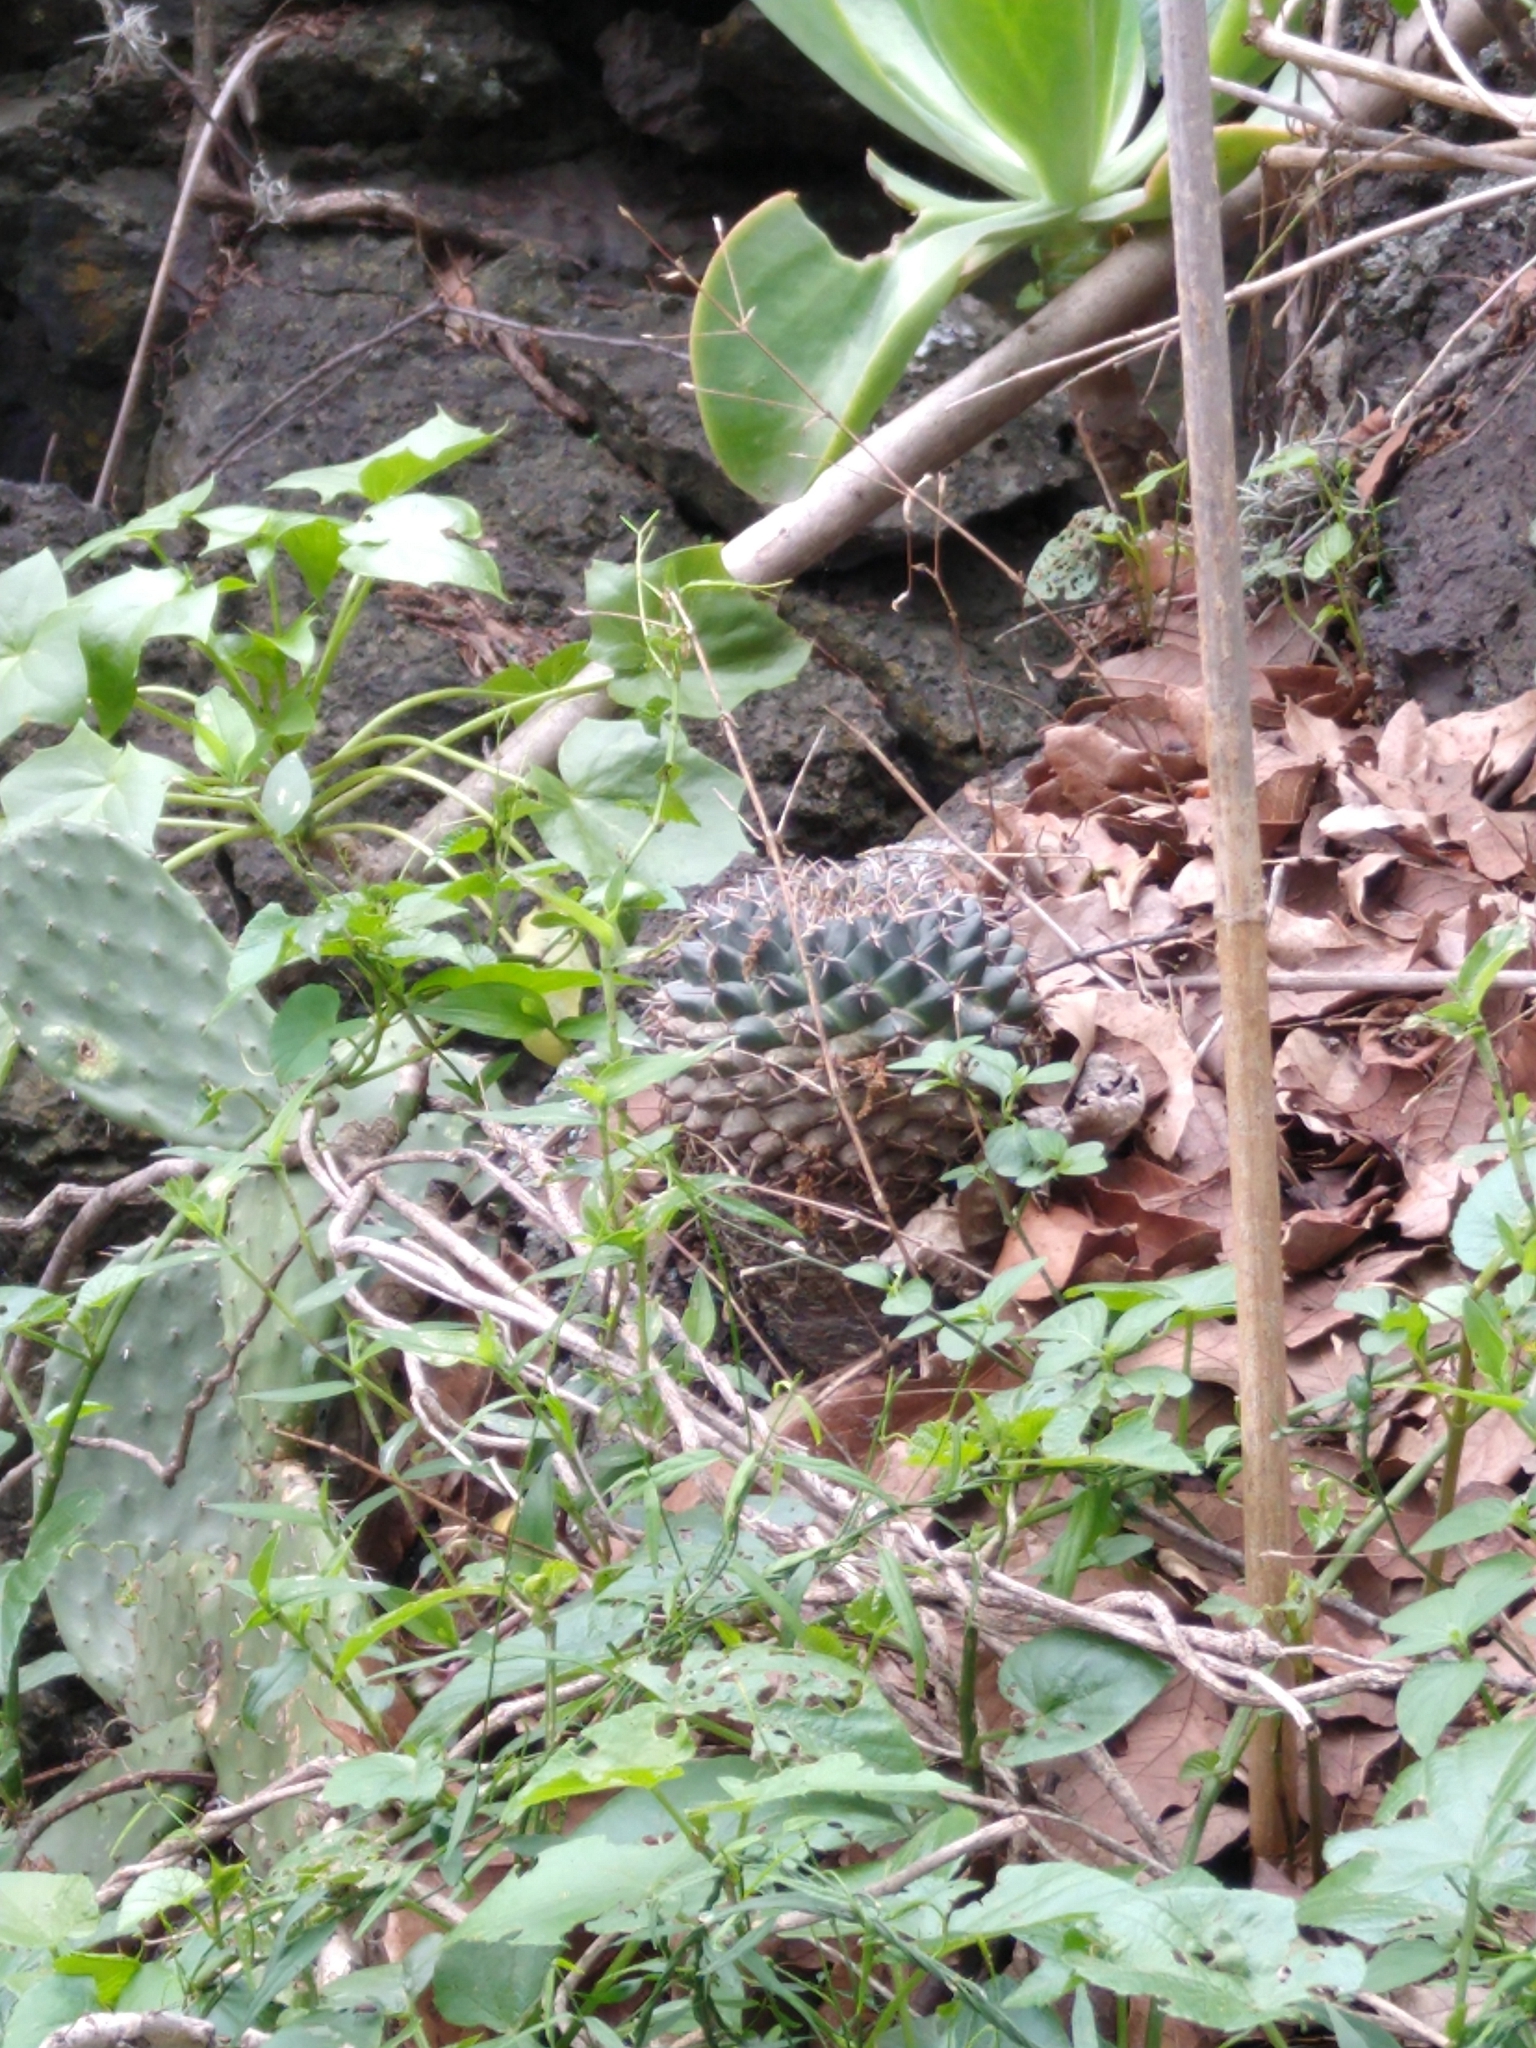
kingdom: Plantae
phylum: Tracheophyta
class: Magnoliopsida
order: Caryophyllales
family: Cactaceae
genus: Mammillaria
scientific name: Mammillaria magnimamma
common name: Mexican pincushion
